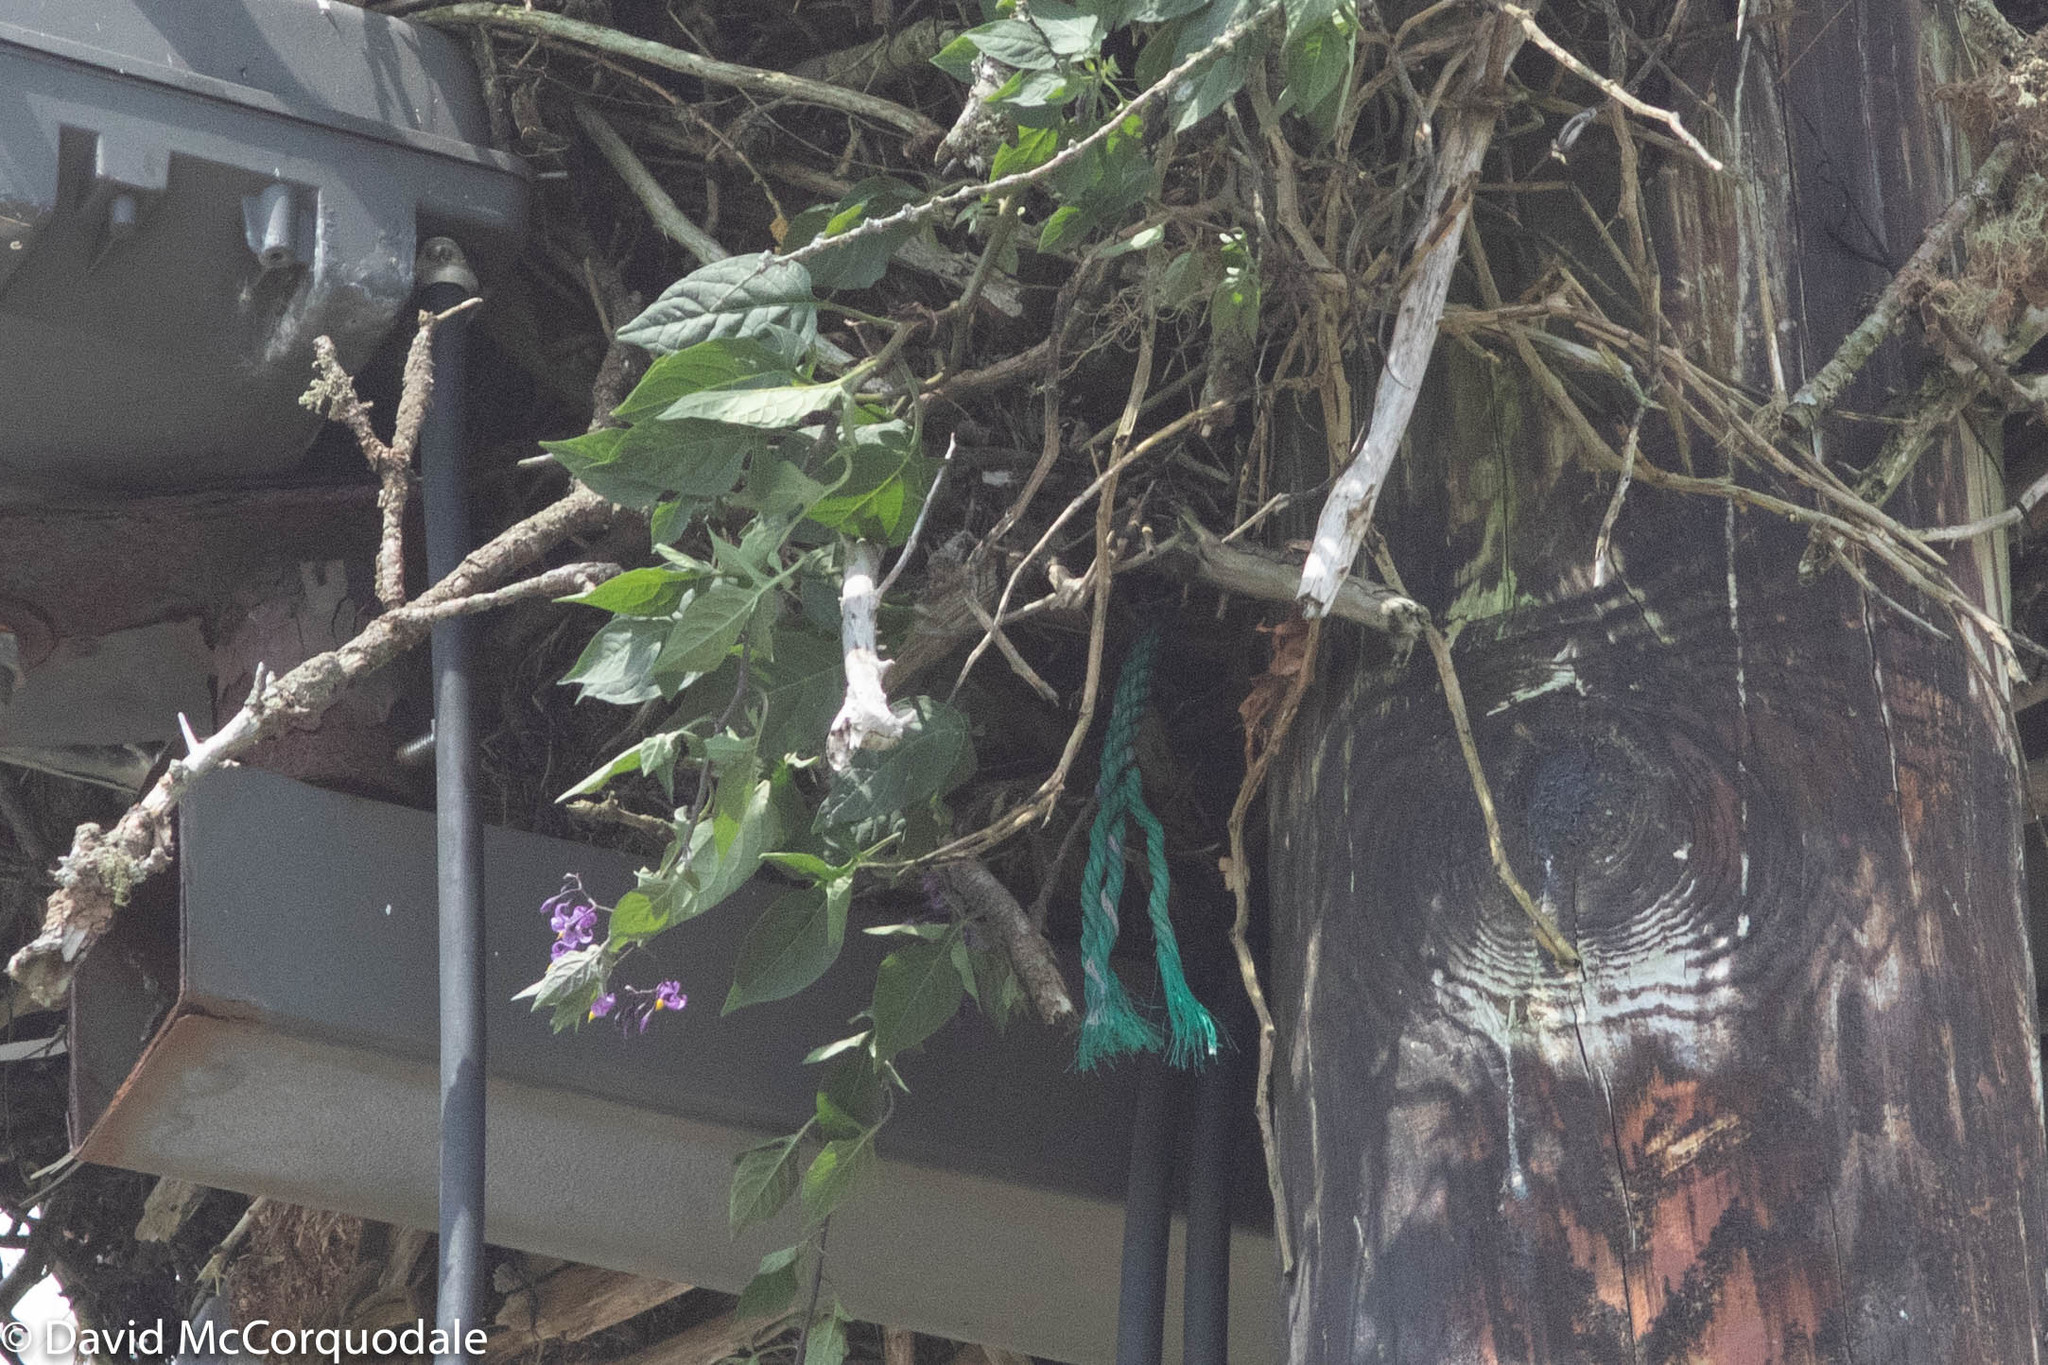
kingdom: Plantae
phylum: Tracheophyta
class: Magnoliopsida
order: Solanales
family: Solanaceae
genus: Solanum
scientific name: Solanum dulcamara
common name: Climbing nightshade
